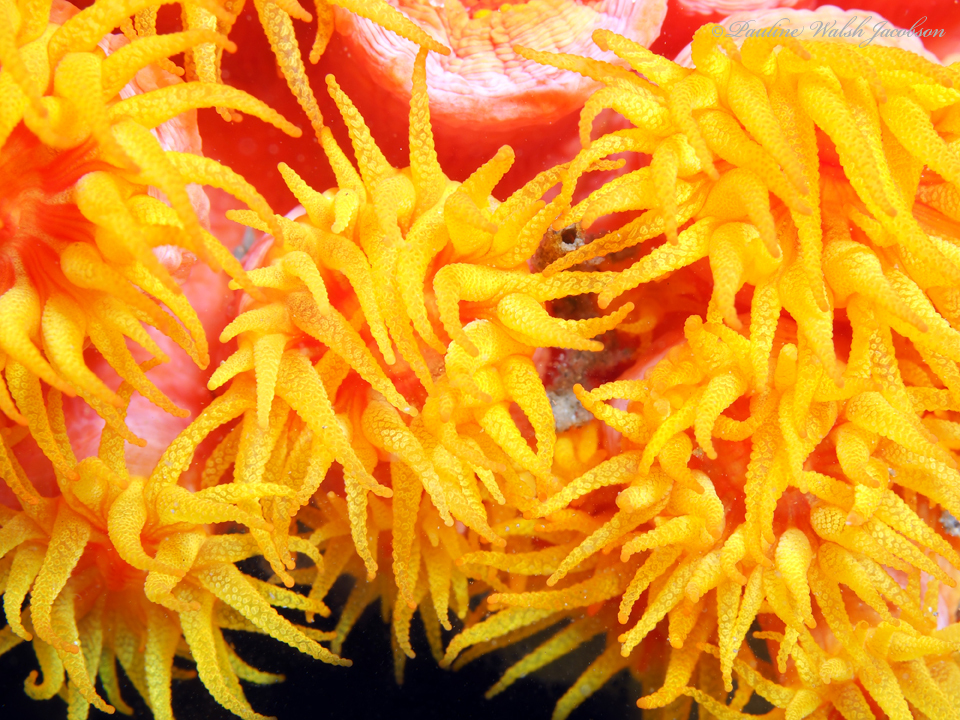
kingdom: Animalia
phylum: Cnidaria
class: Anthozoa
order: Scleractinia
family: Dendrophylliidae
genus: Tubastraea
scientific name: Tubastraea coccinea
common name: Orange cup coral
